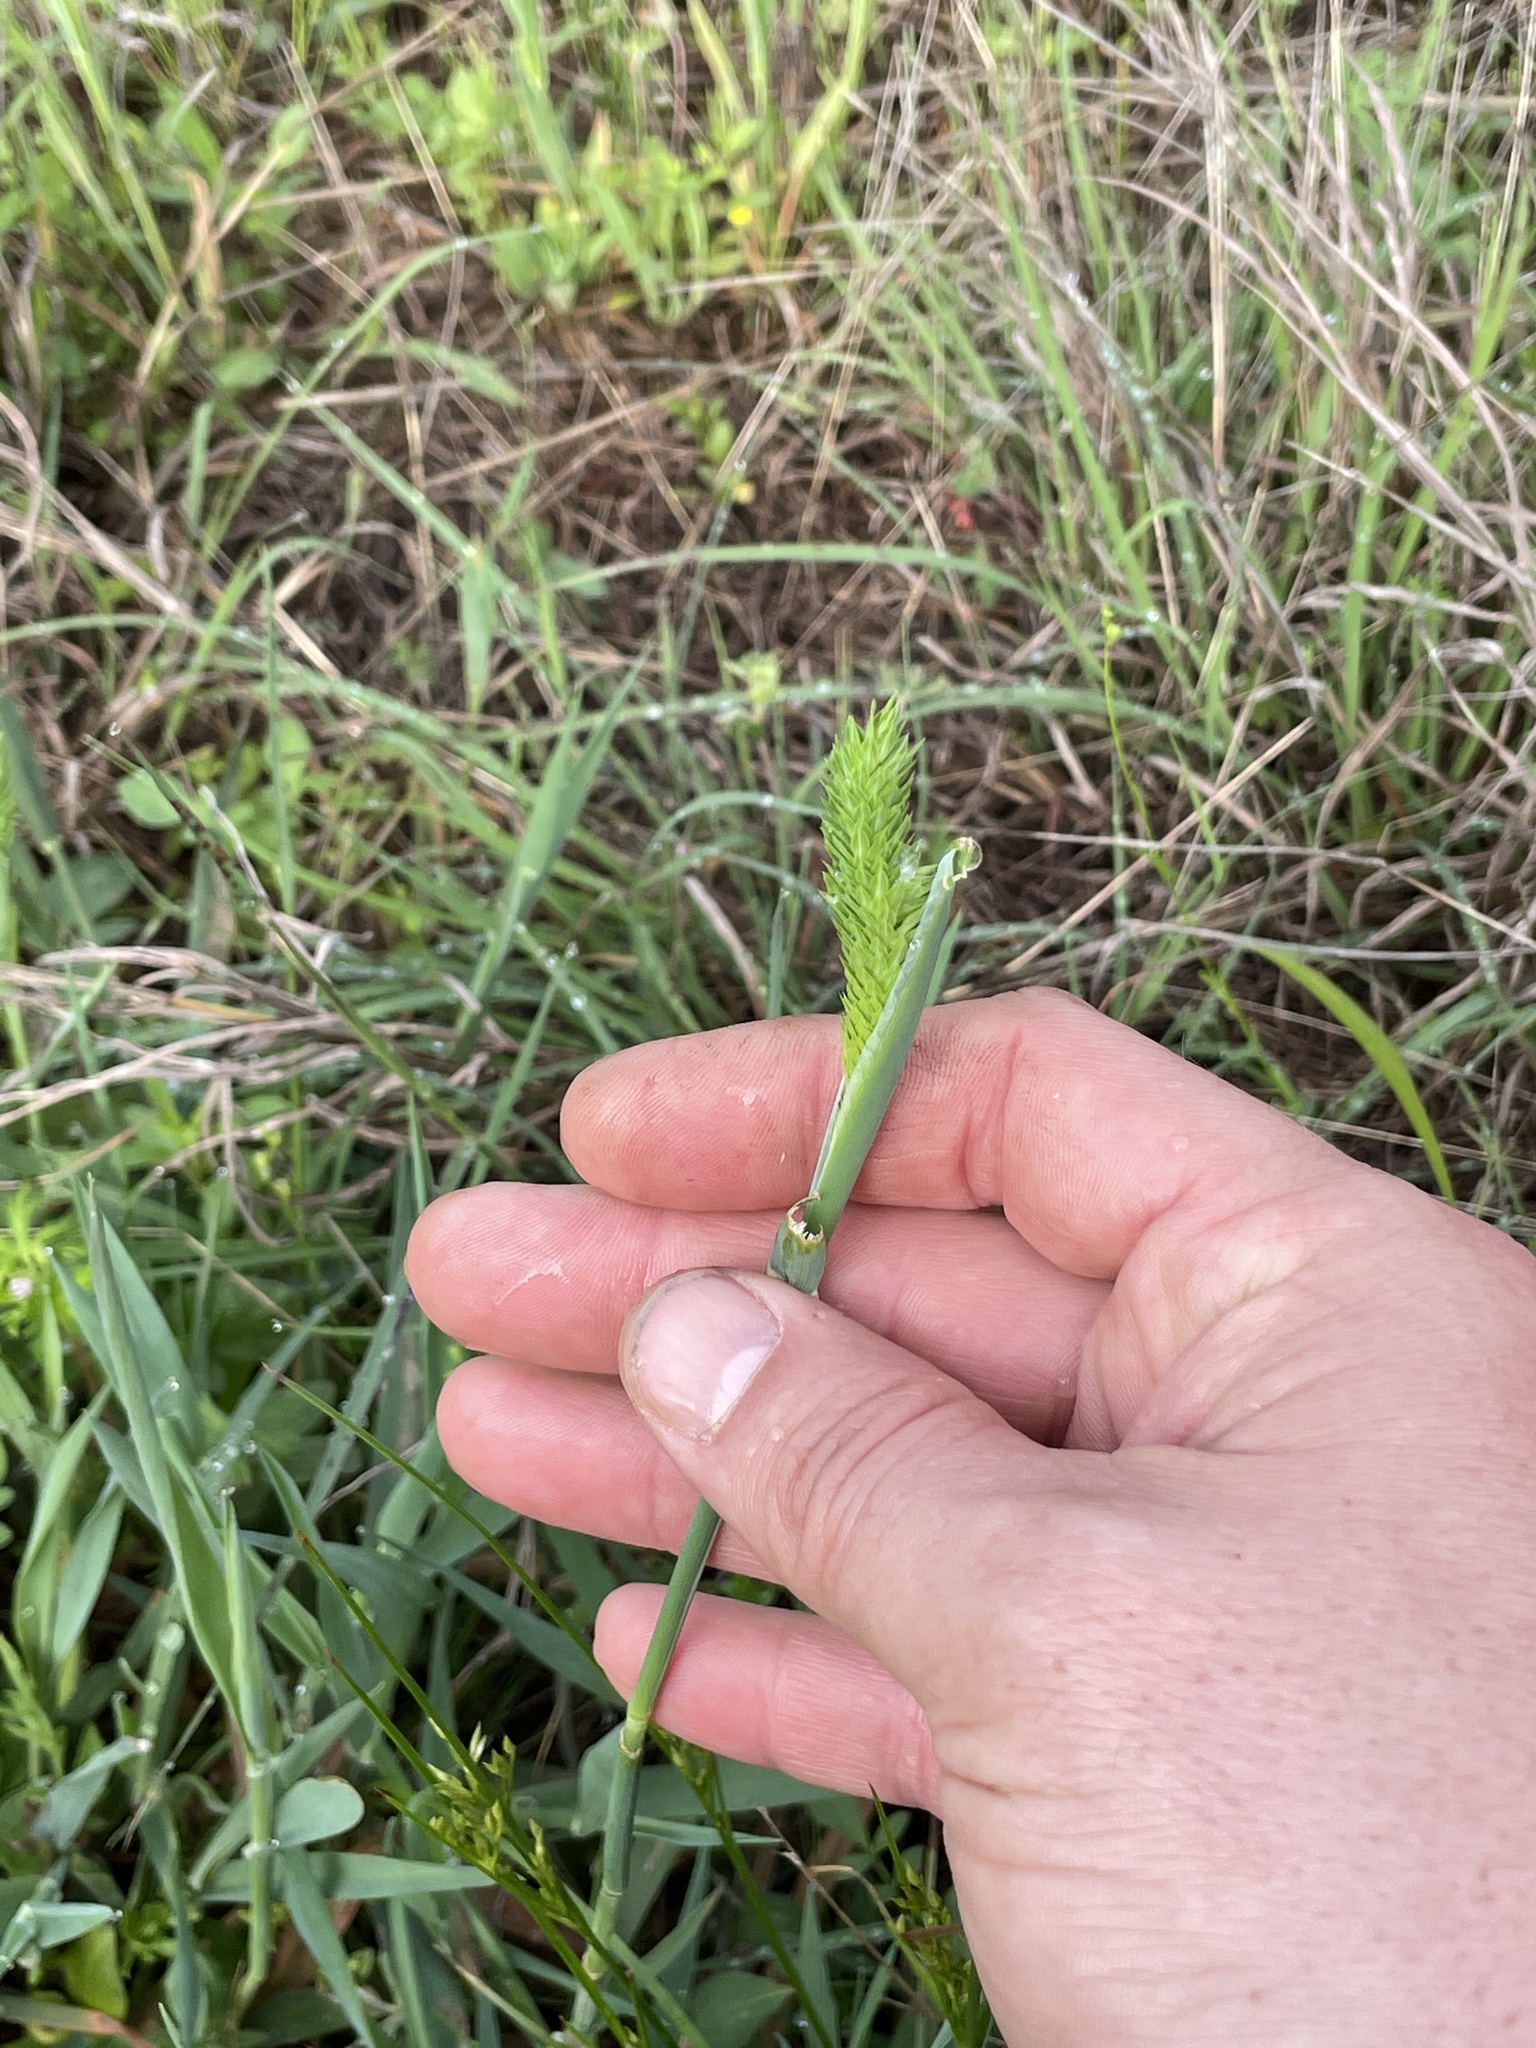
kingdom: Plantae
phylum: Tracheophyta
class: Liliopsida
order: Poales
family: Poaceae
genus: Phalaris
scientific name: Phalaris caroliniana
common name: May grass
